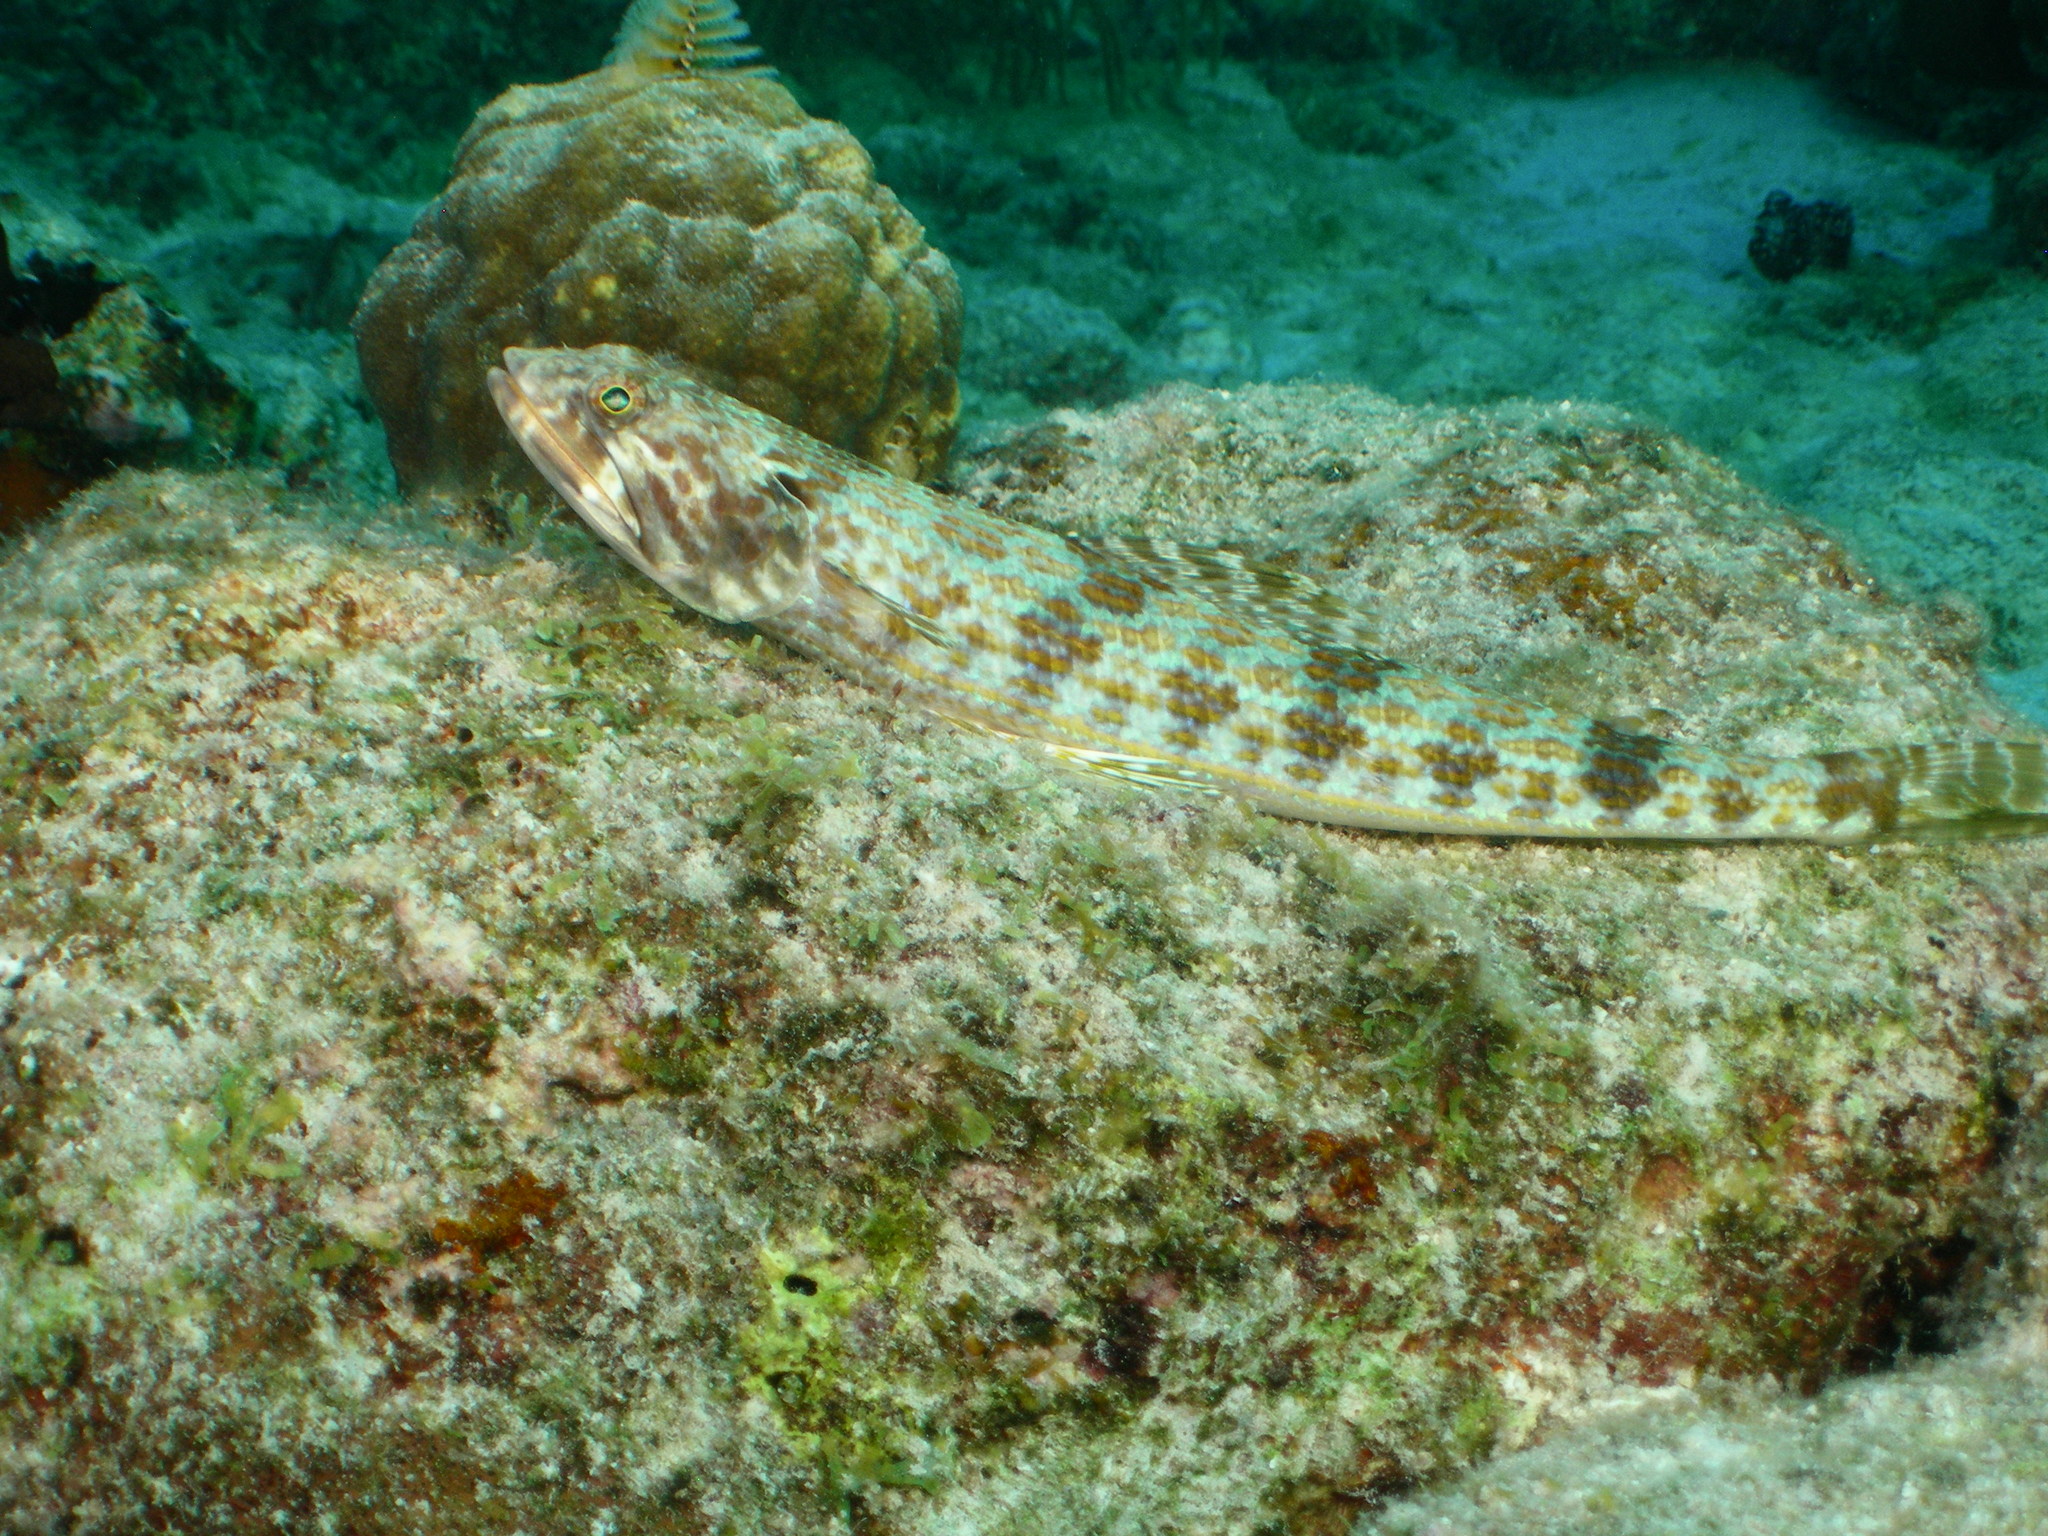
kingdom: Animalia
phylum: Chordata
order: Aulopiformes
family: Synodontidae
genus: Synodus
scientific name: Synodus intermedius
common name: Sand diver
